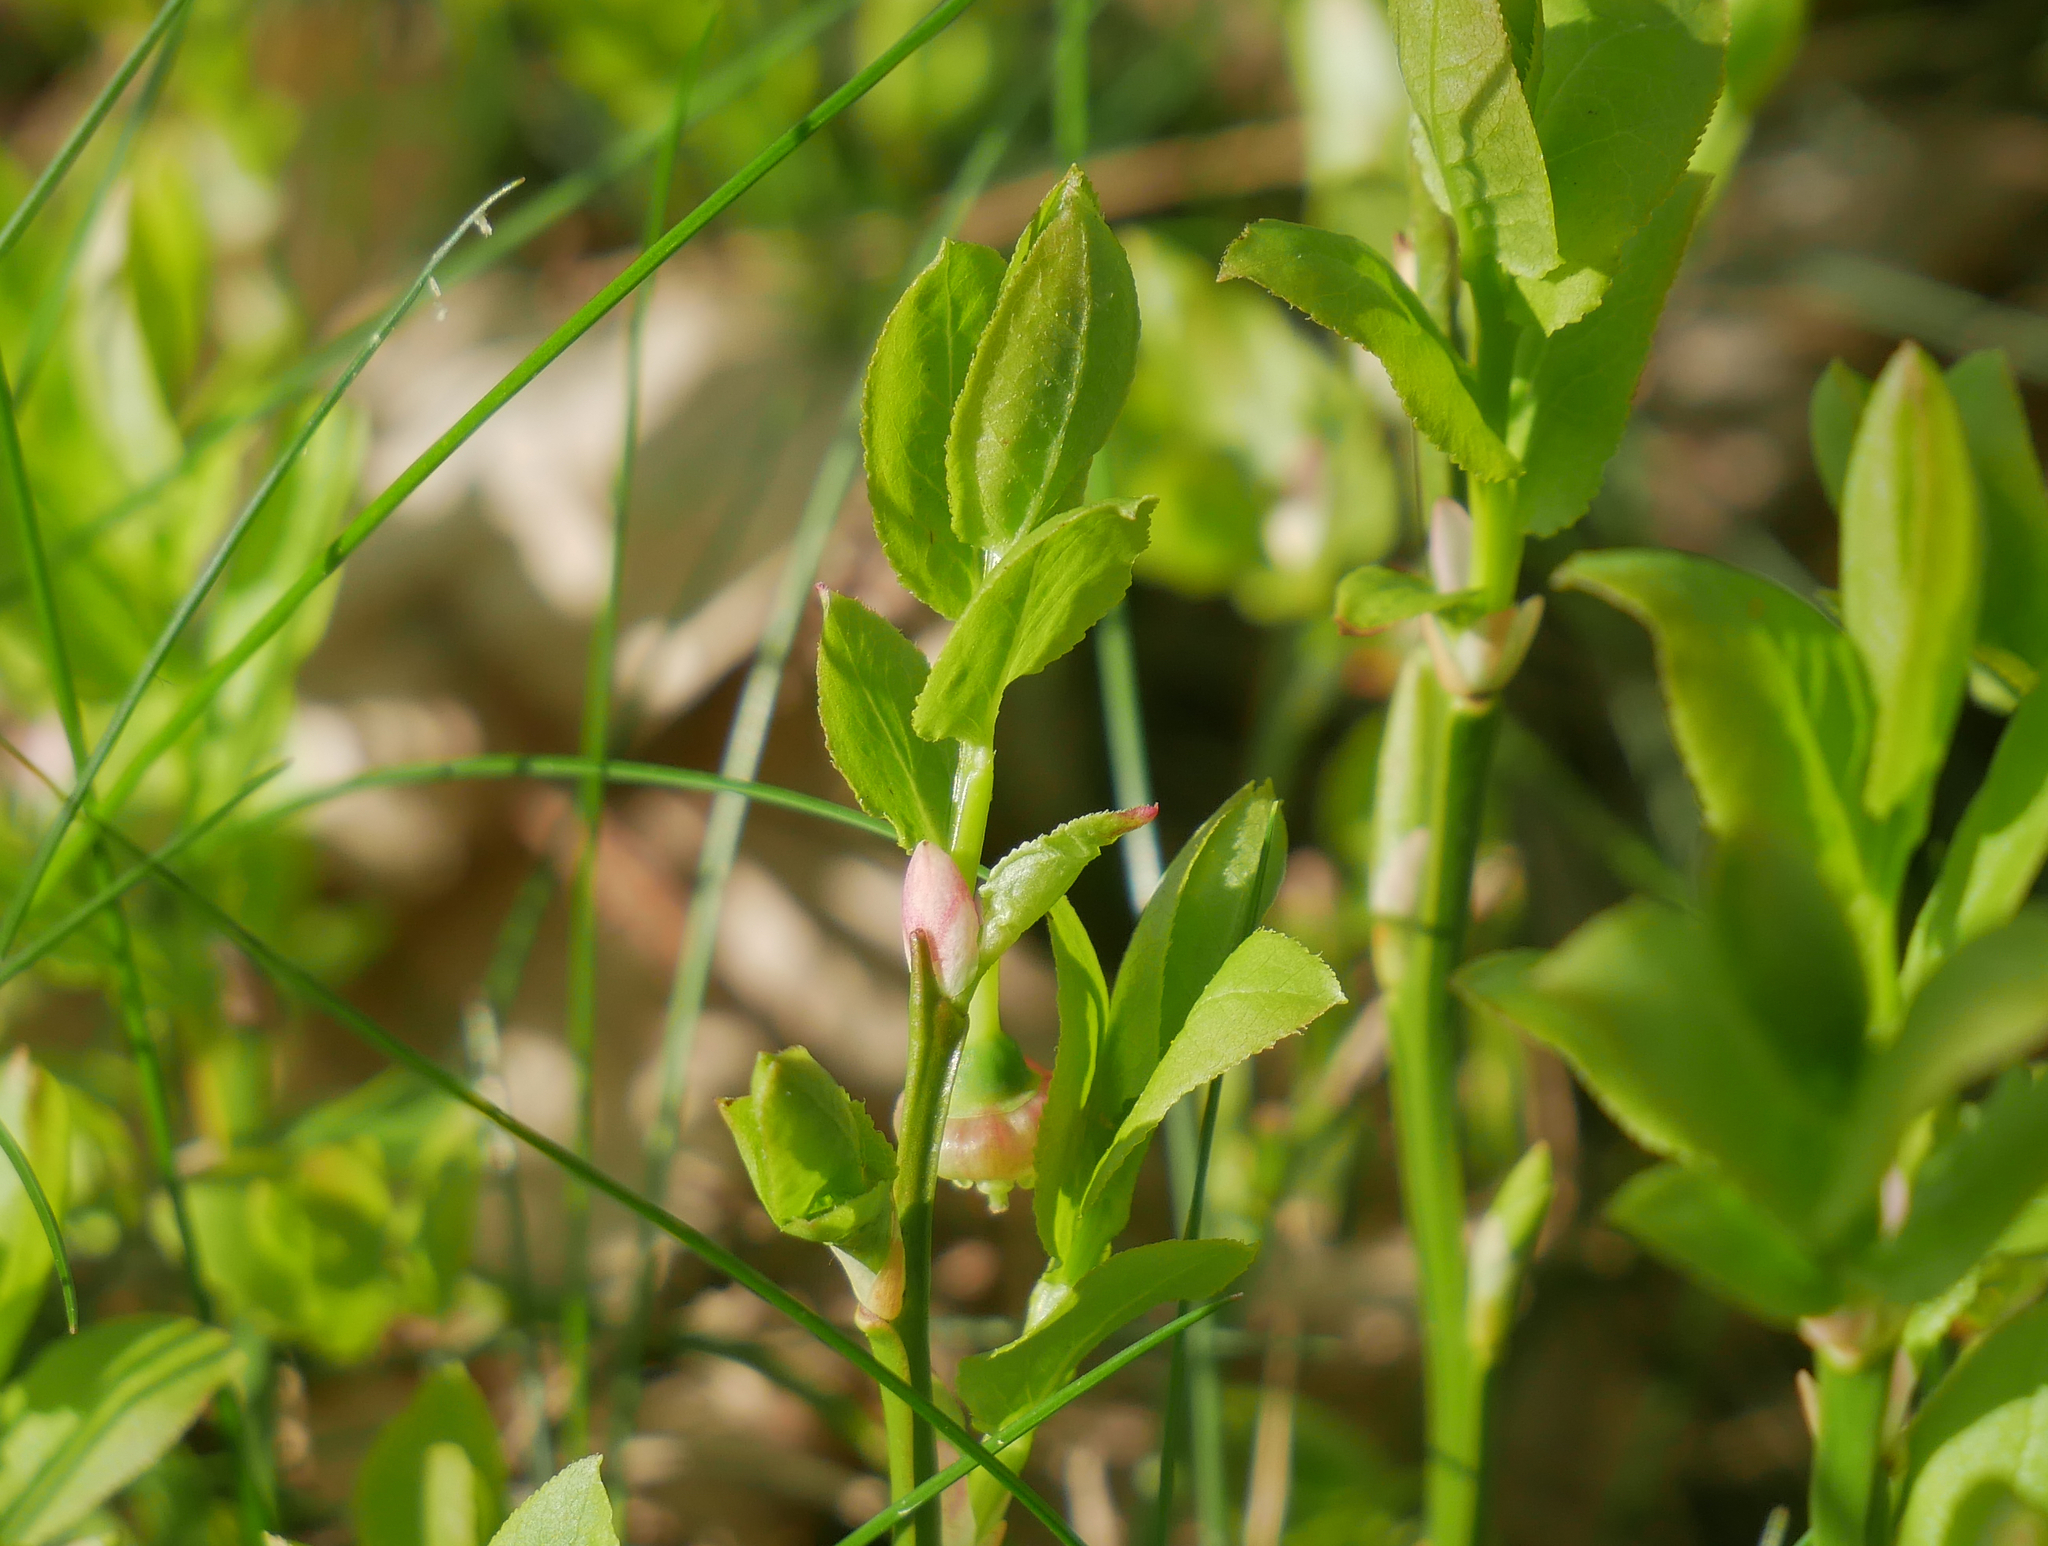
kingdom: Plantae
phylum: Tracheophyta
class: Magnoliopsida
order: Ericales
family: Ericaceae
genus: Vaccinium
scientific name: Vaccinium myrtillus
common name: Bilberry
